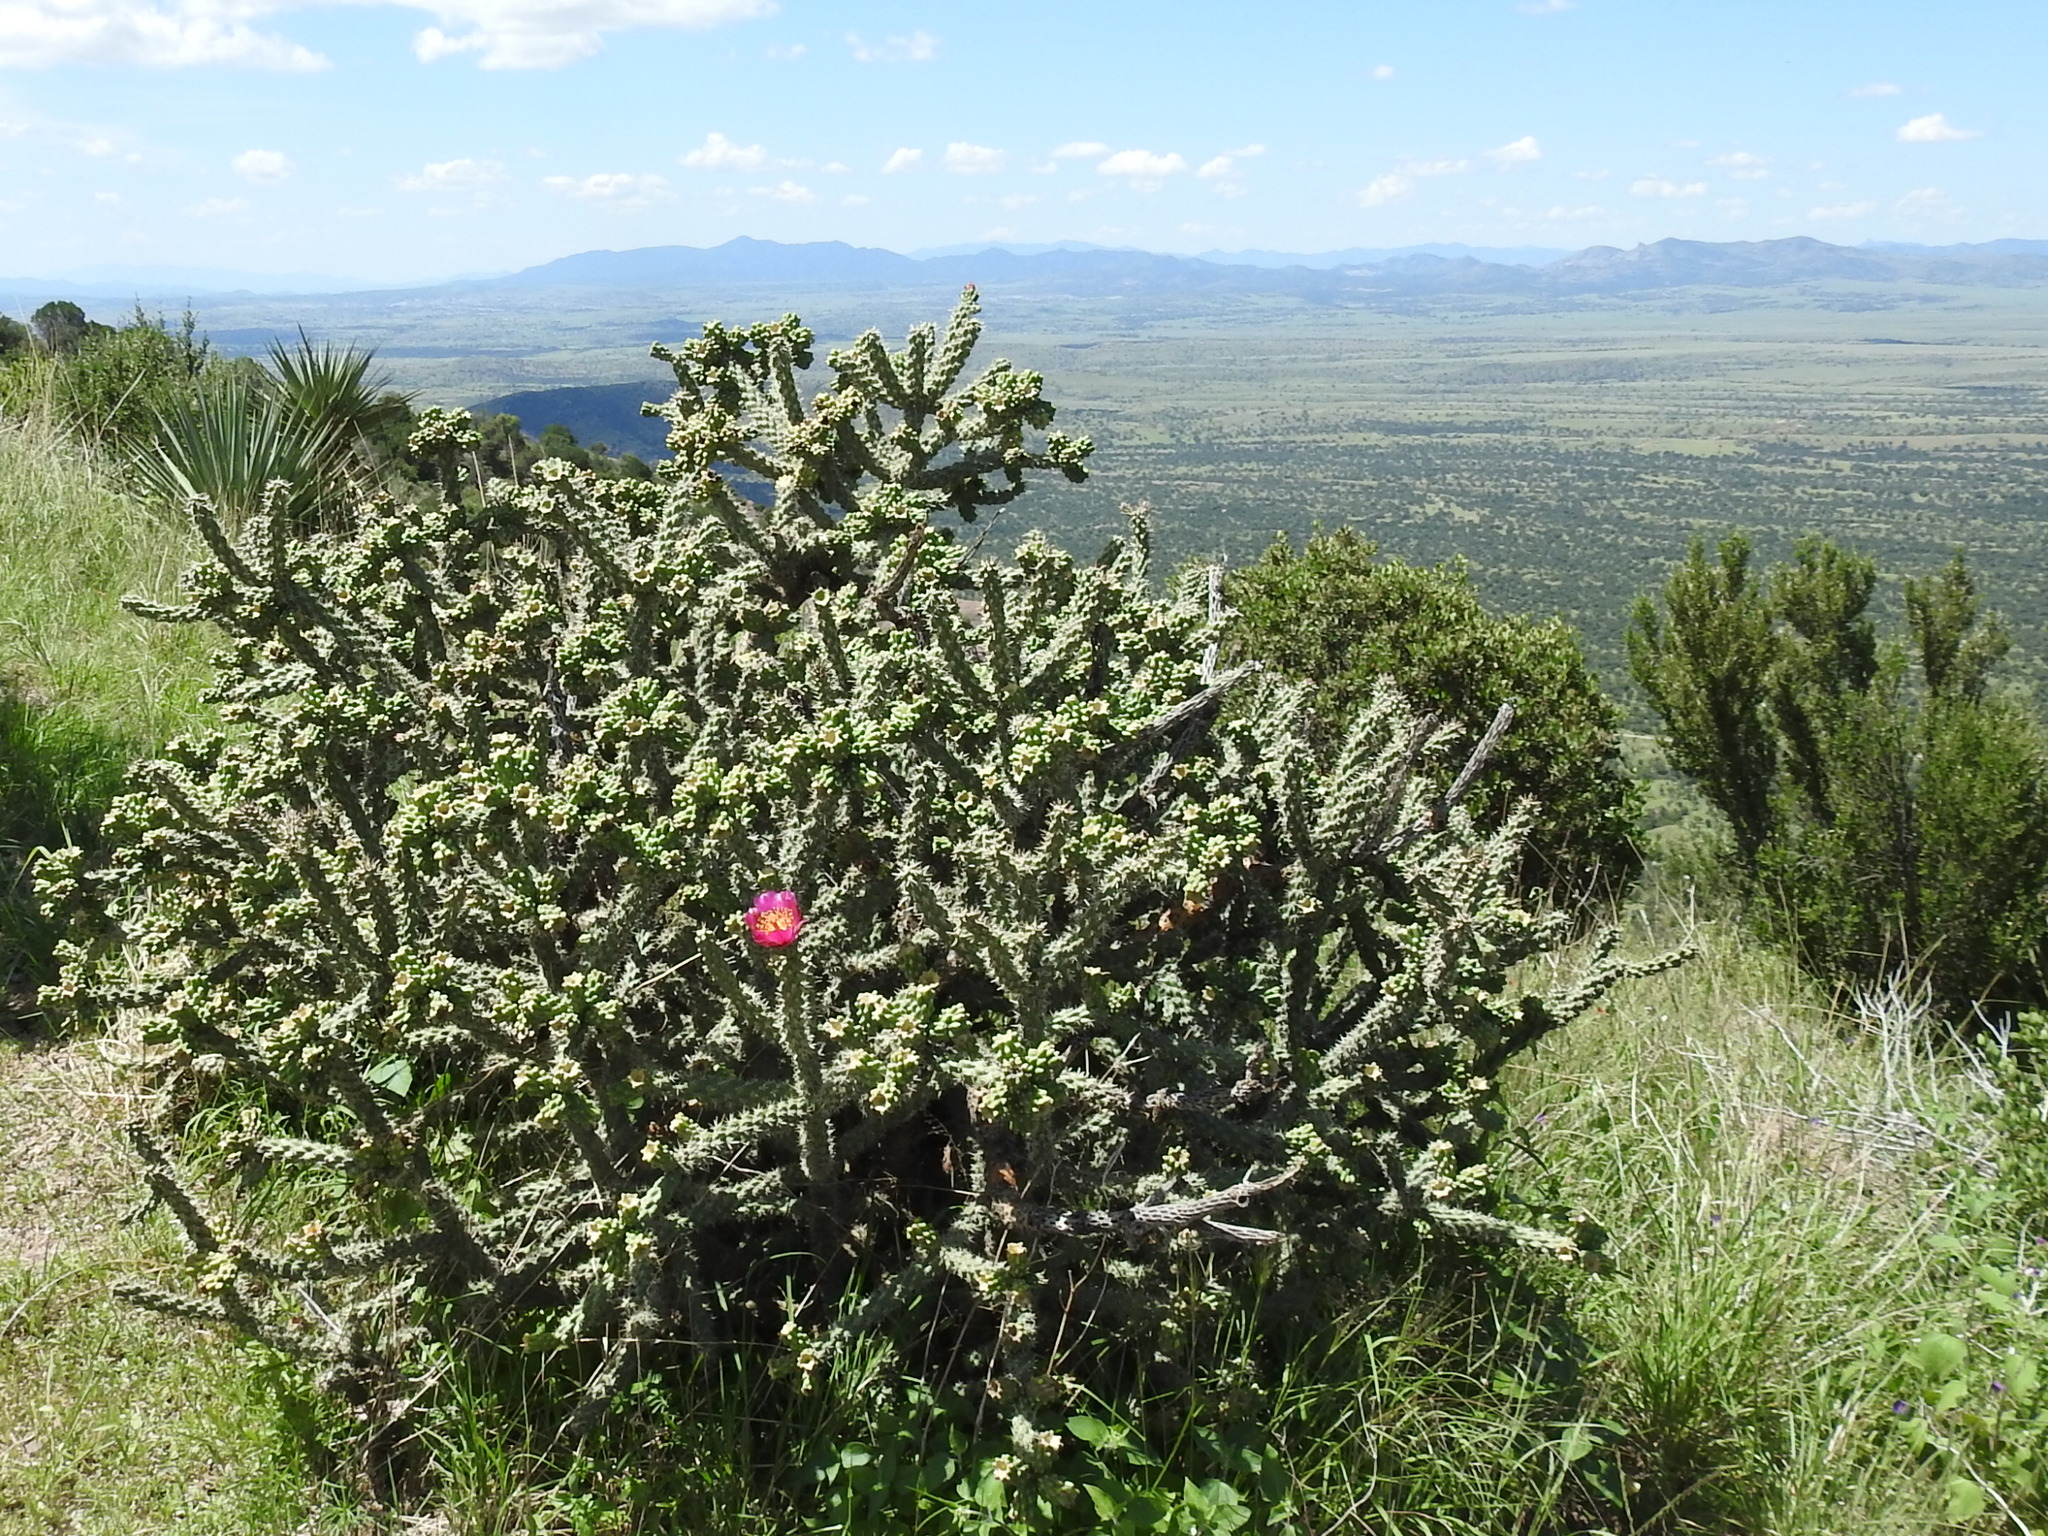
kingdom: Plantae
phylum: Tracheophyta
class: Magnoliopsida
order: Caryophyllales
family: Cactaceae
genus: Cylindropuntia
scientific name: Cylindropuntia imbricata
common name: Candelabrum cactus
